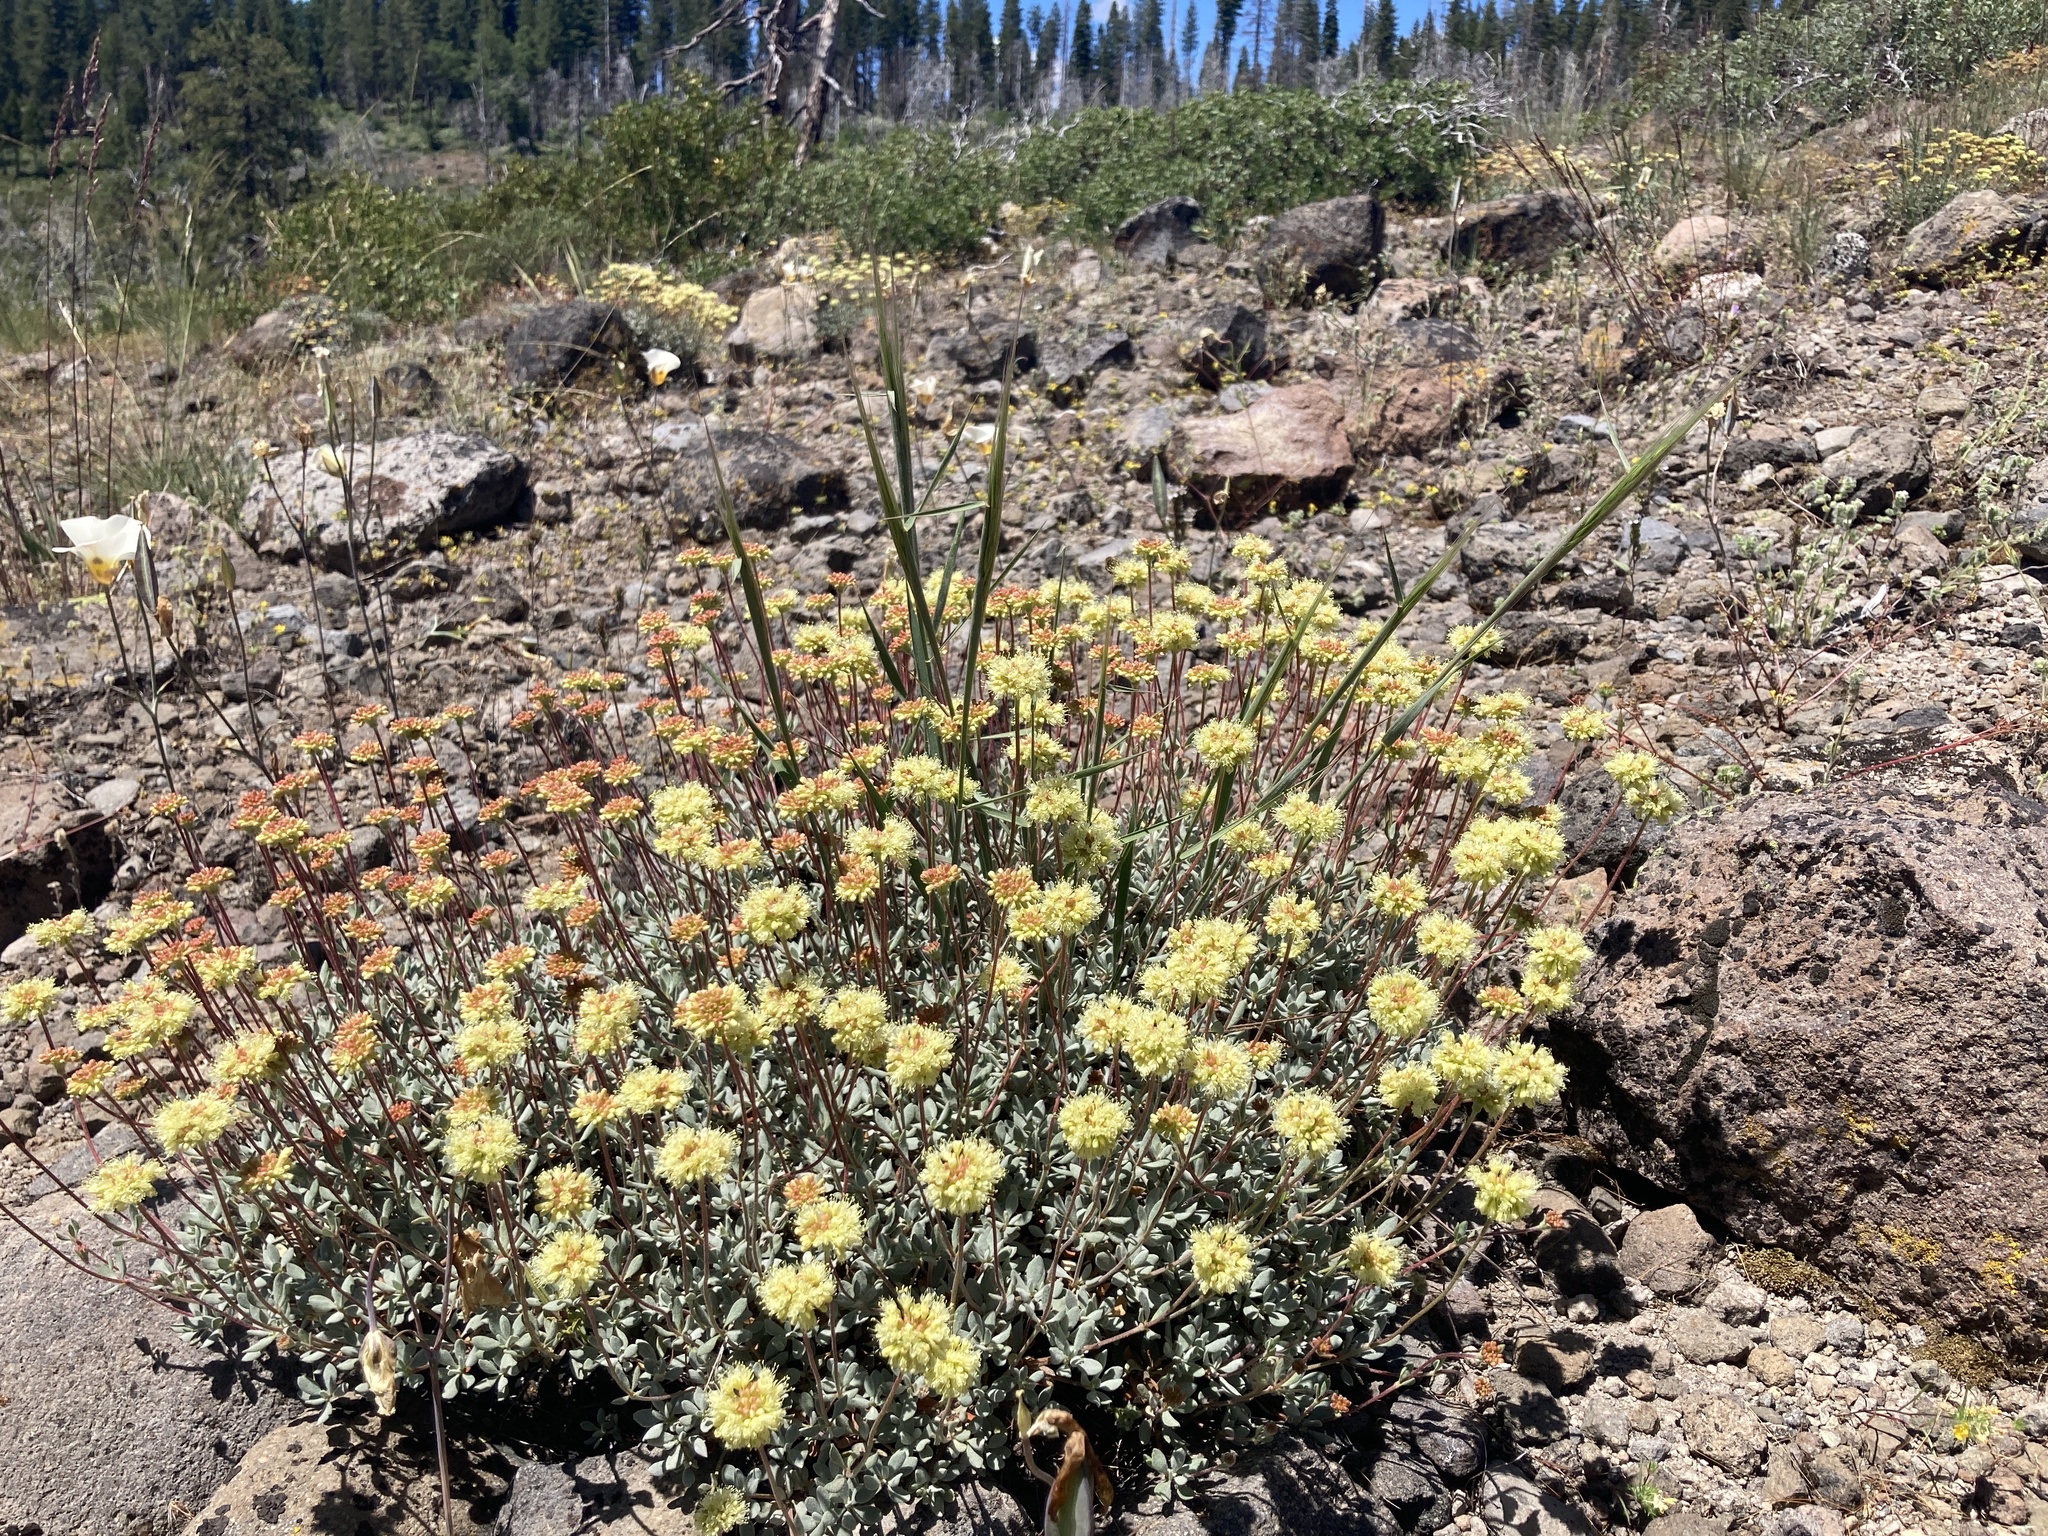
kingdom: Plantae
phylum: Tracheophyta
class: Magnoliopsida
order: Caryophyllales
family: Polygonaceae
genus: Eriogonum
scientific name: Eriogonum umbellatum
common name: Sulfur-buckwheat
